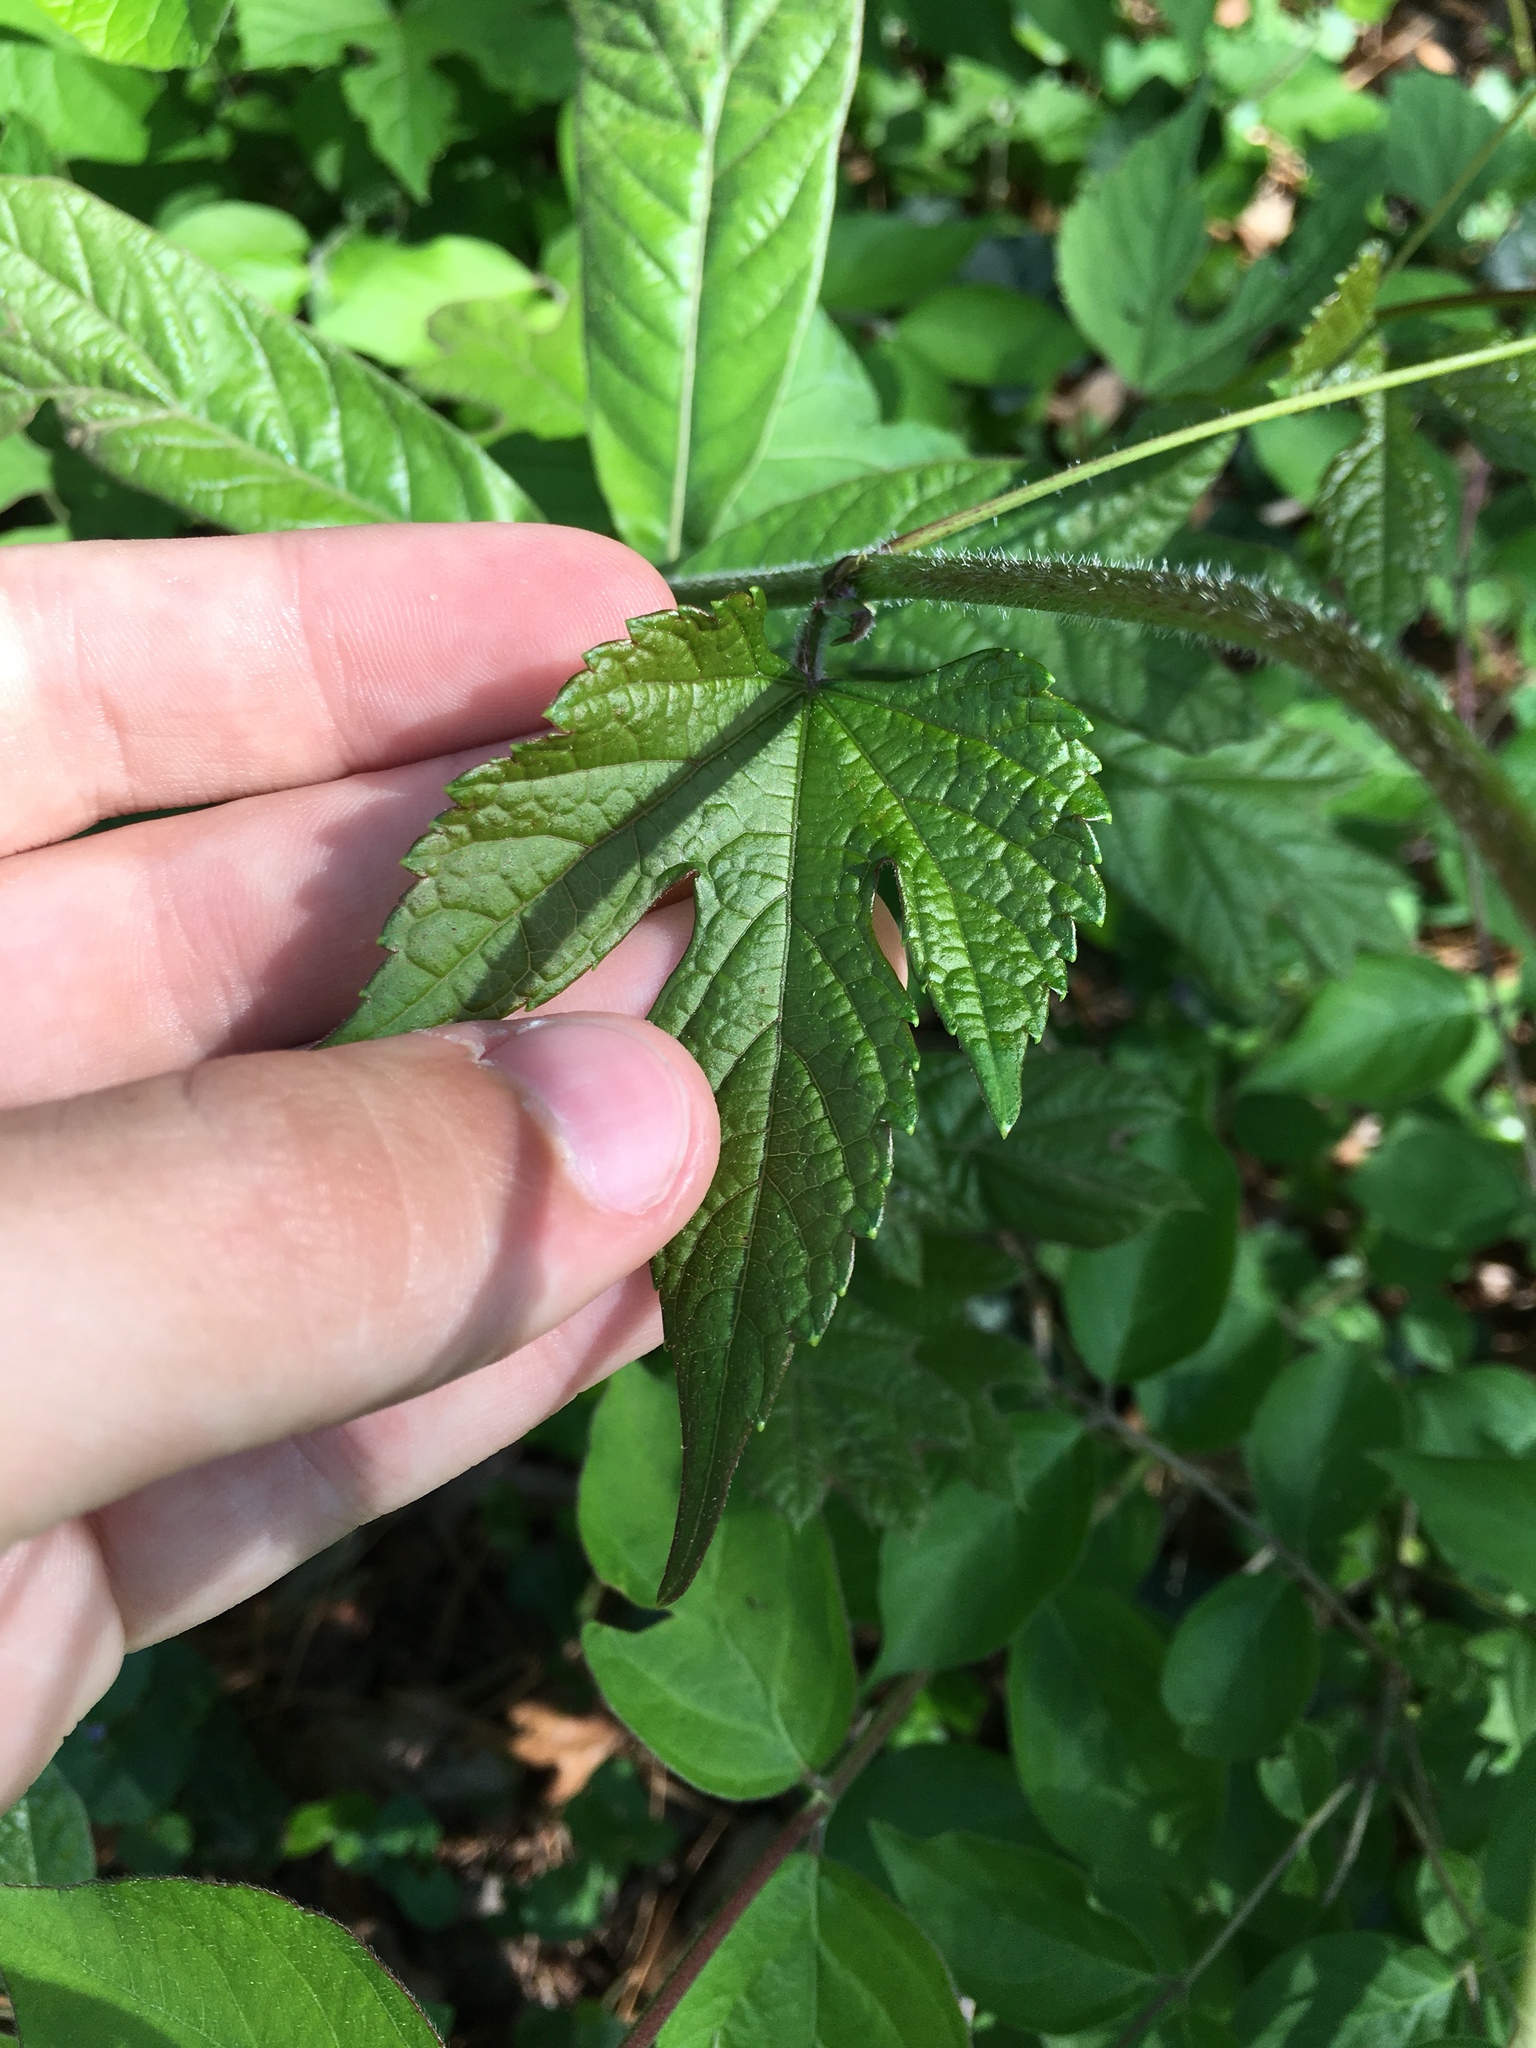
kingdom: Plantae
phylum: Tracheophyta
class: Magnoliopsida
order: Vitales
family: Vitaceae
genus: Ampelopsis
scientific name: Ampelopsis glandulosa
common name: Amur peppervine
